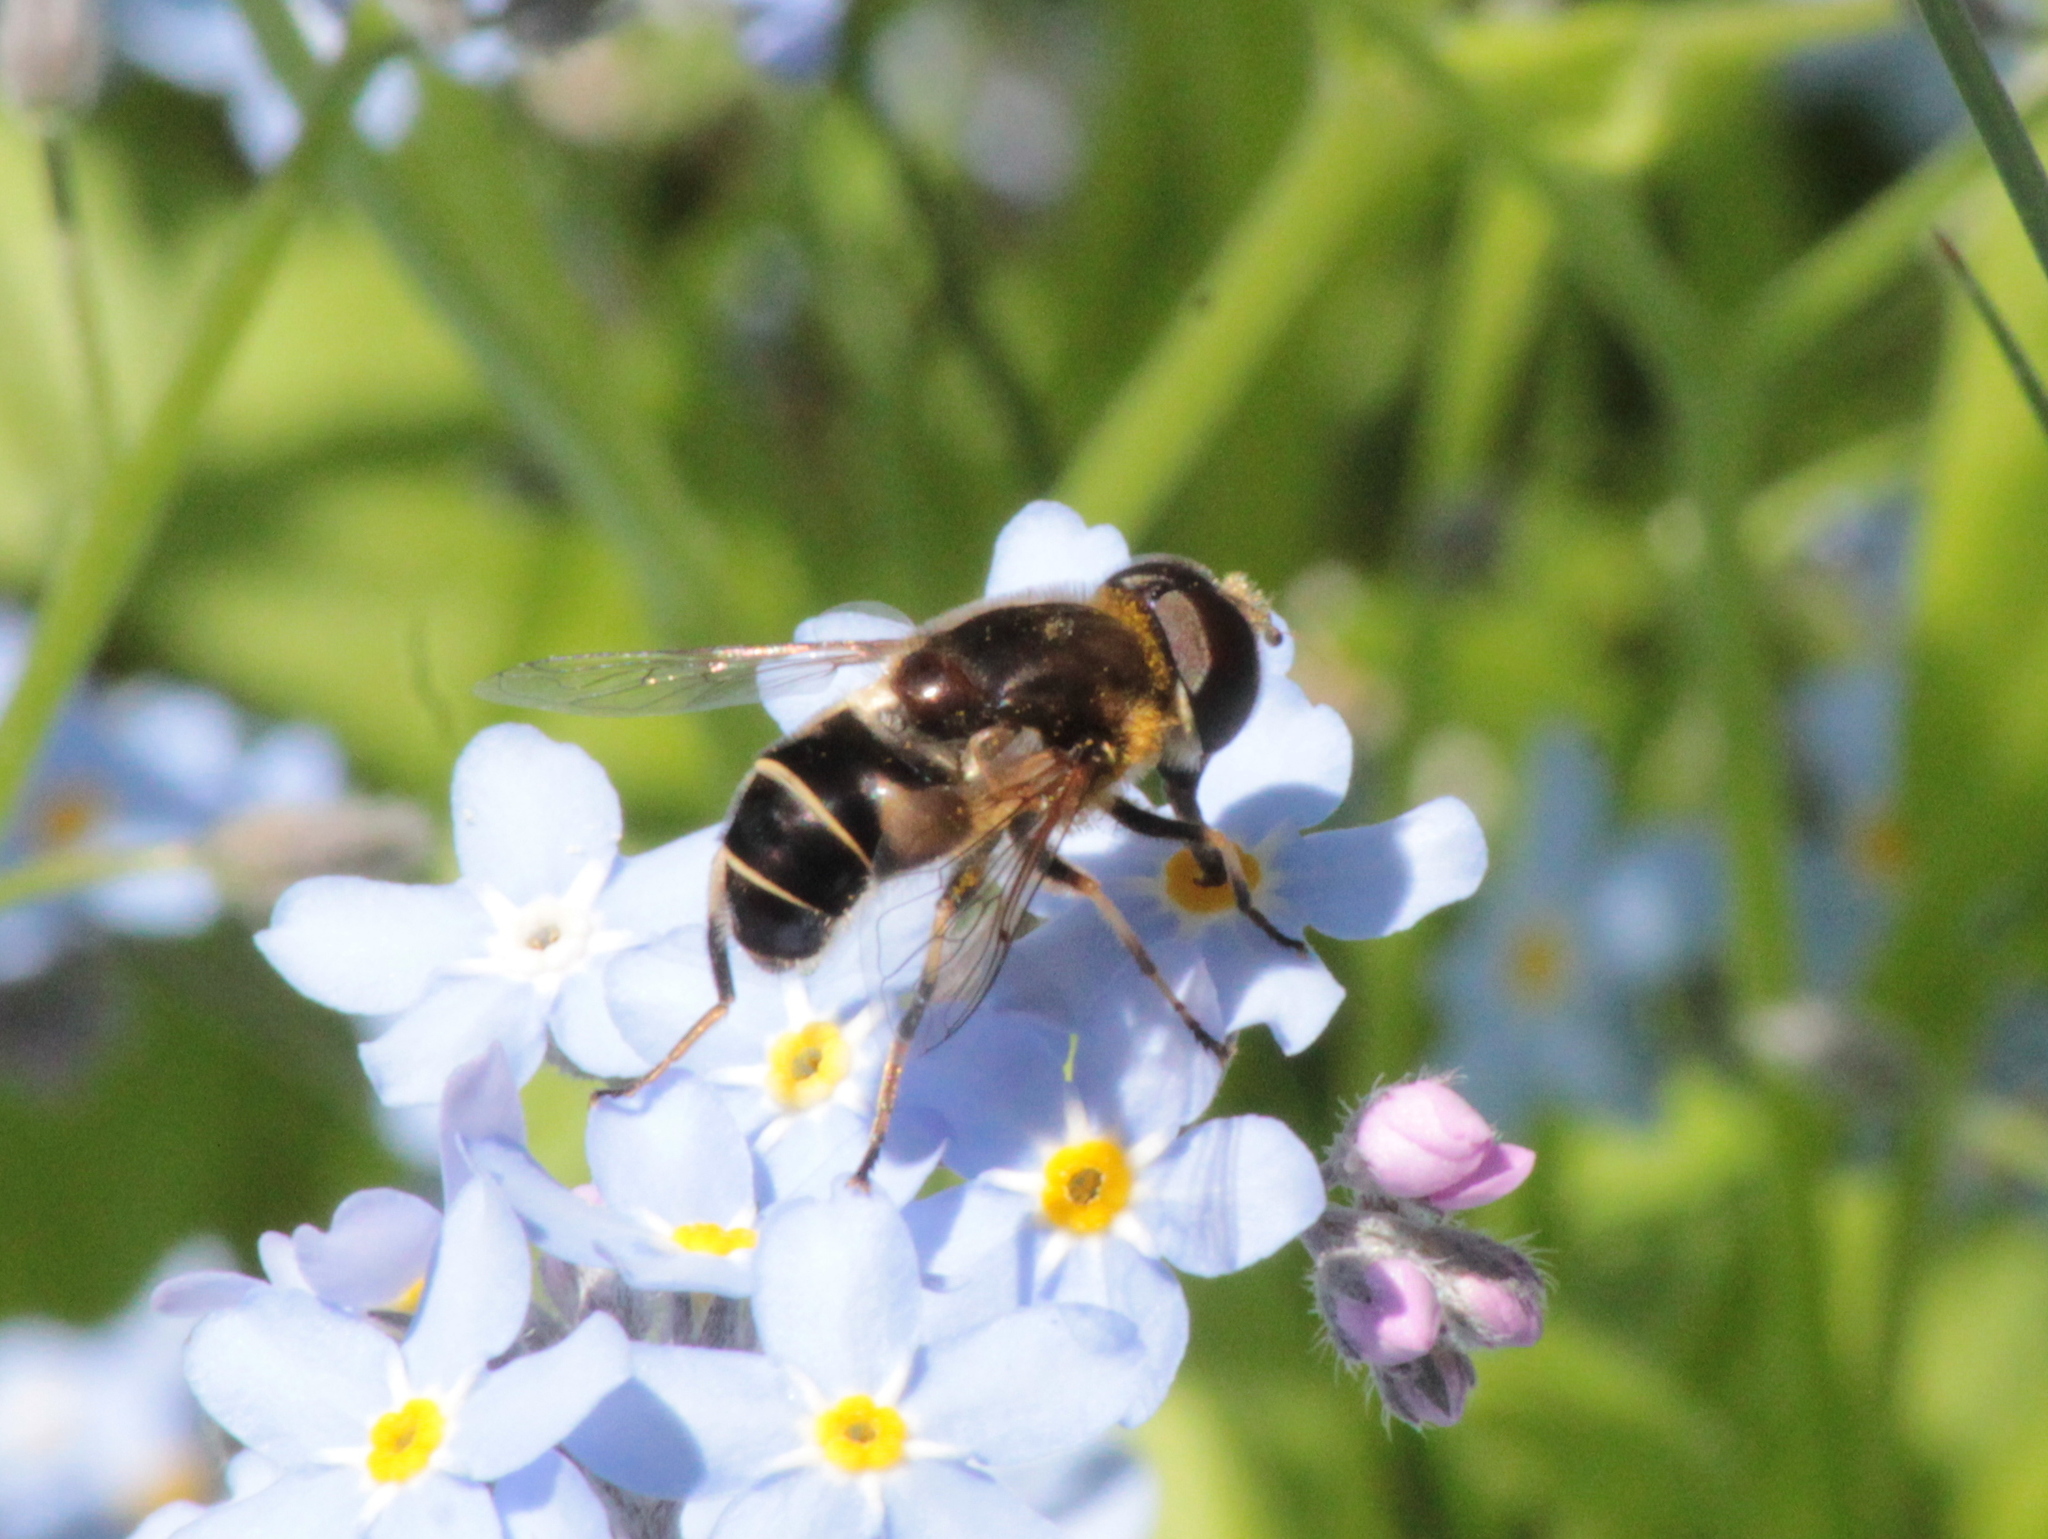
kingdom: Animalia
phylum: Arthropoda
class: Insecta
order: Diptera
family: Syrphidae
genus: Eristalis
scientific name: Eristalis nemorum
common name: Orange-spined drone fly
